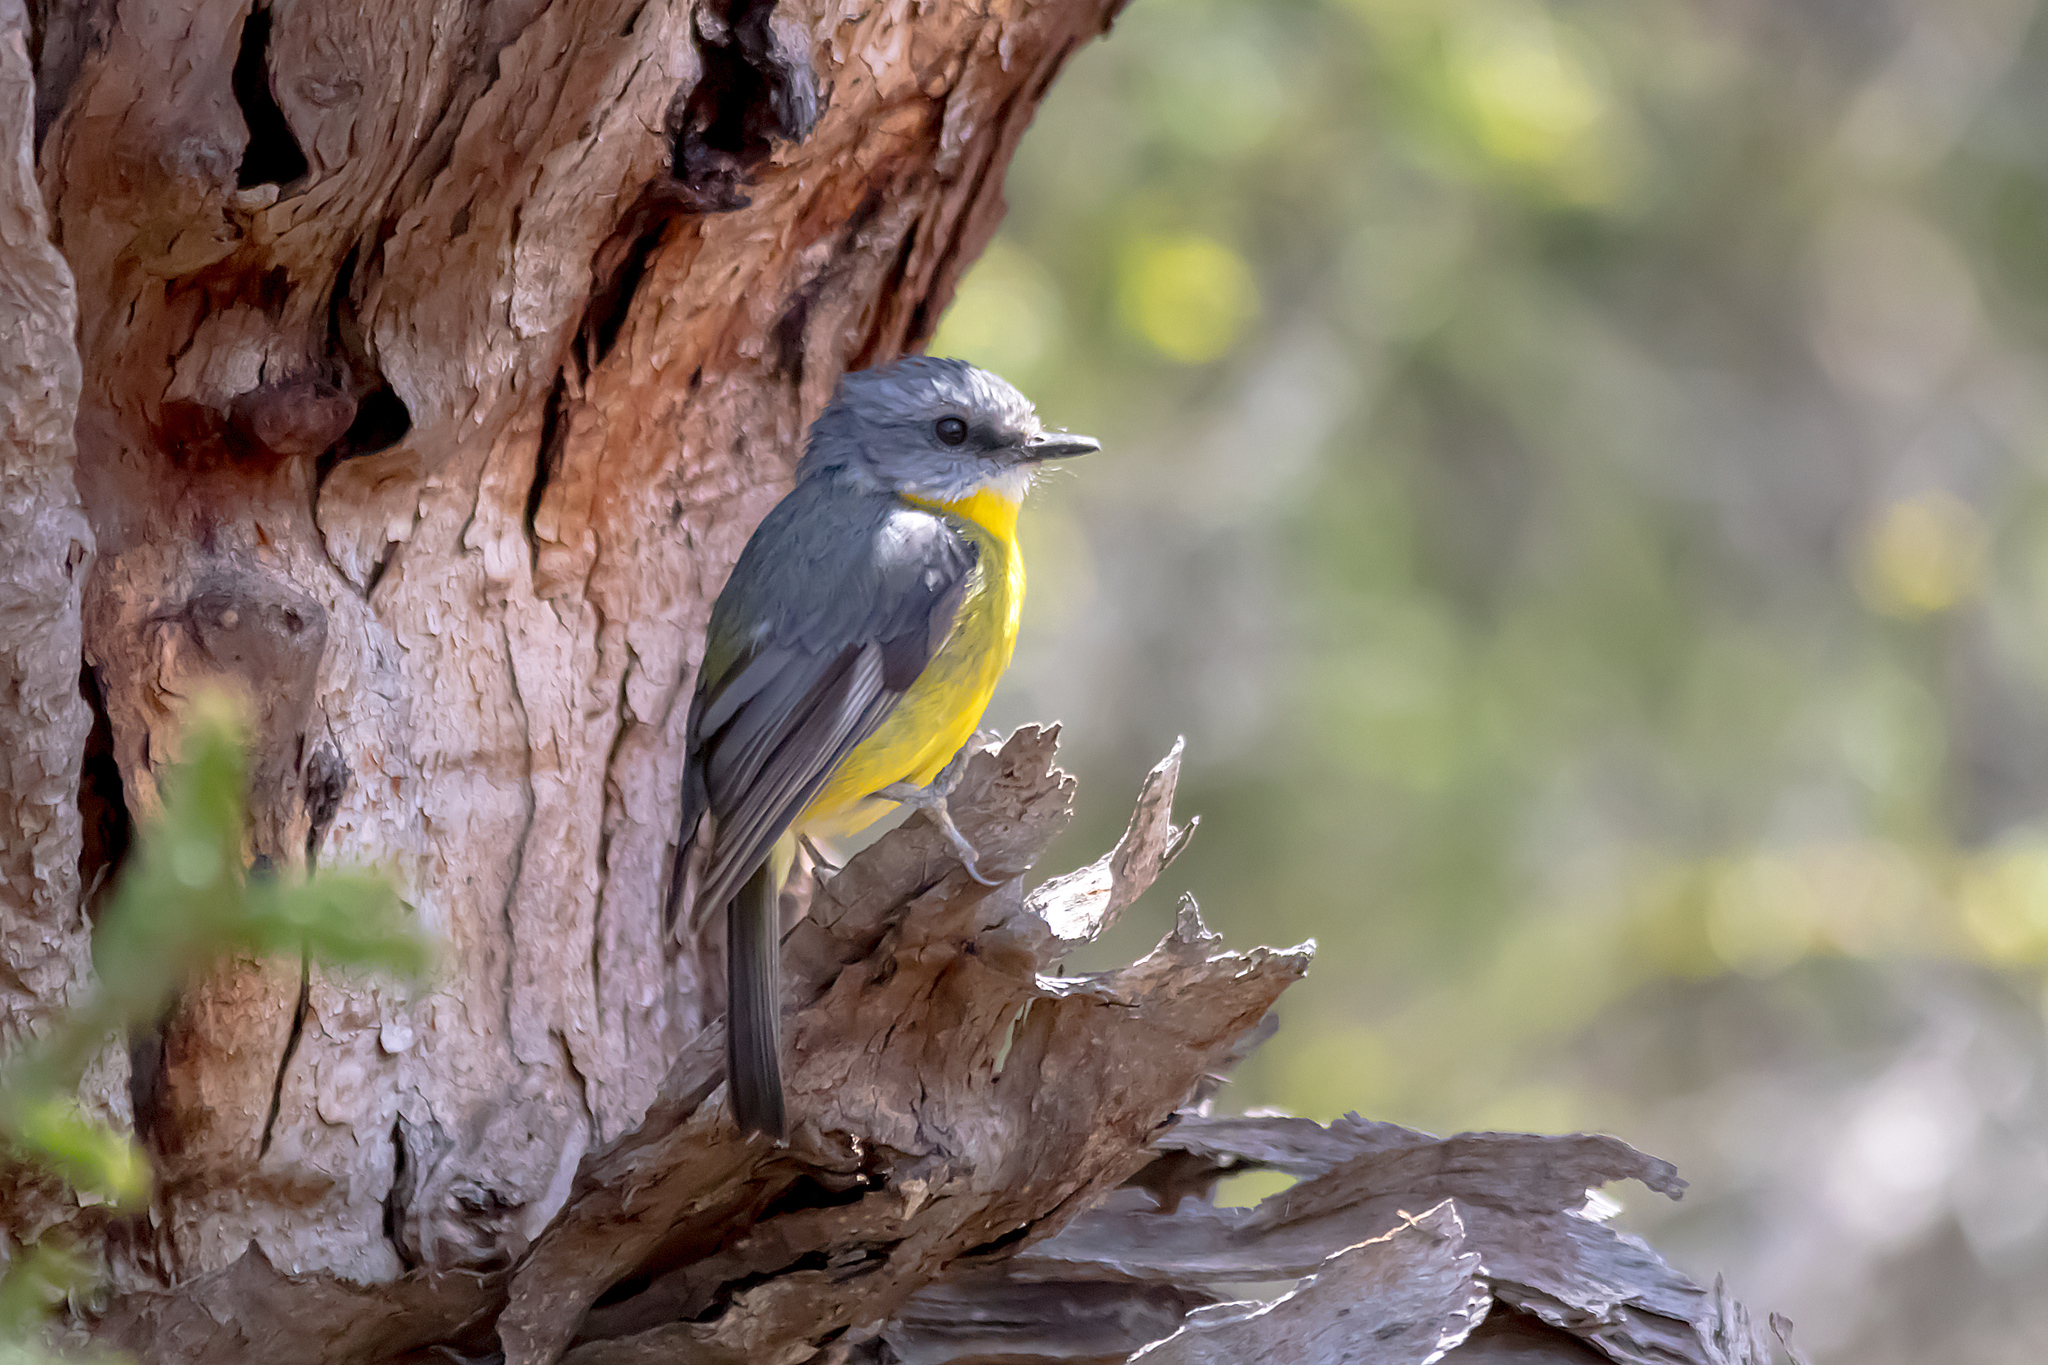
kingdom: Animalia
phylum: Chordata
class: Aves
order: Passeriformes
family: Petroicidae
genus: Eopsaltria
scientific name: Eopsaltria australis
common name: Eastern yellow robin
